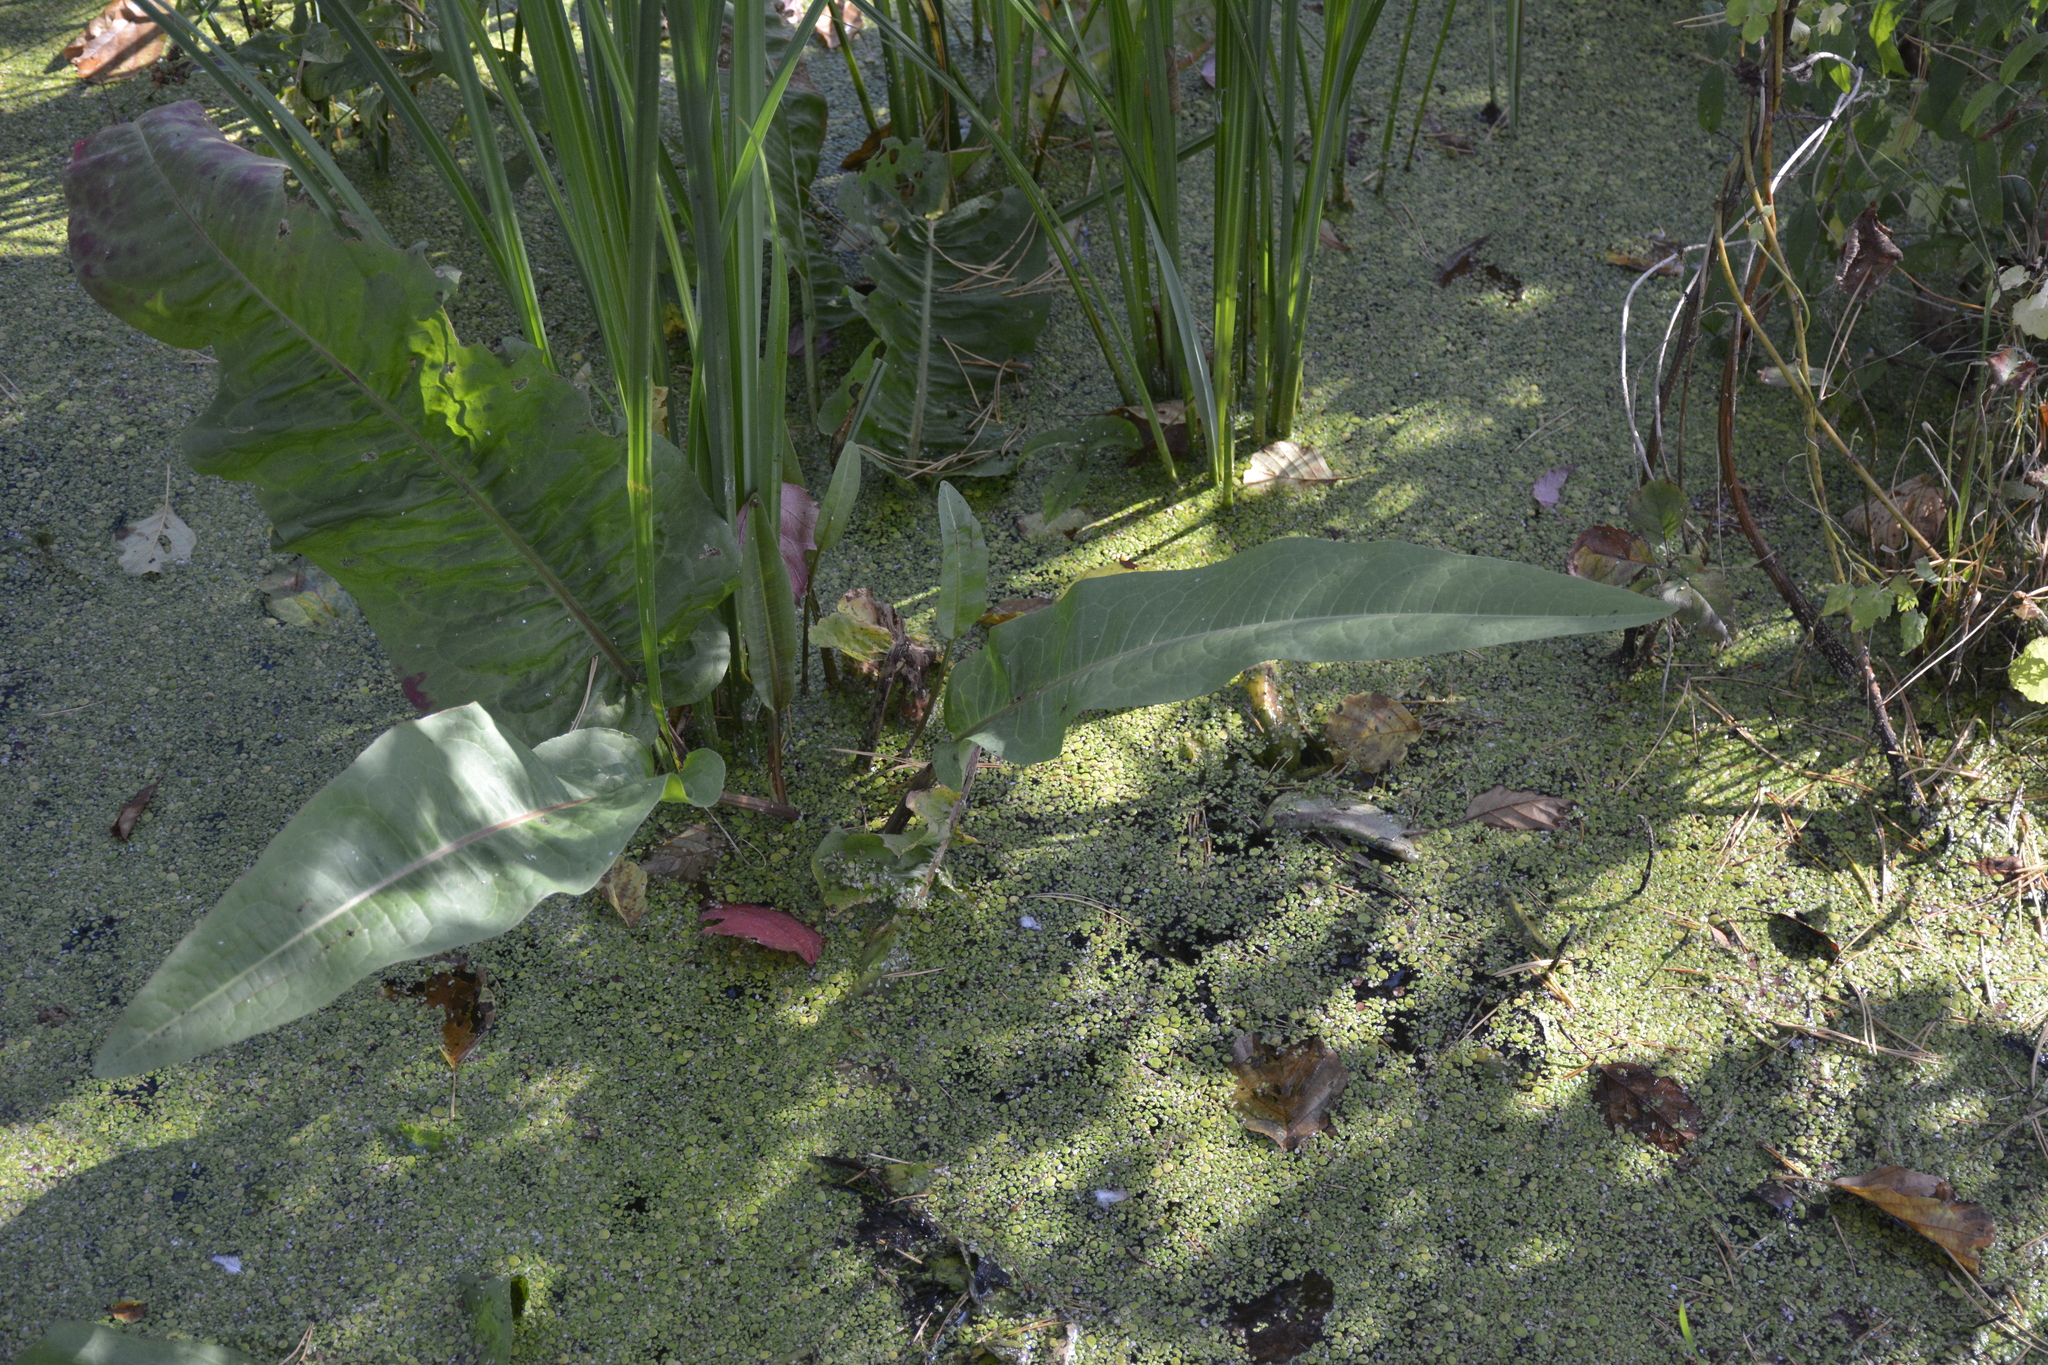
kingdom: Plantae
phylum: Tracheophyta
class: Magnoliopsida
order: Caryophyllales
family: Polygonaceae
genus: Rumex
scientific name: Rumex heterophyllus
